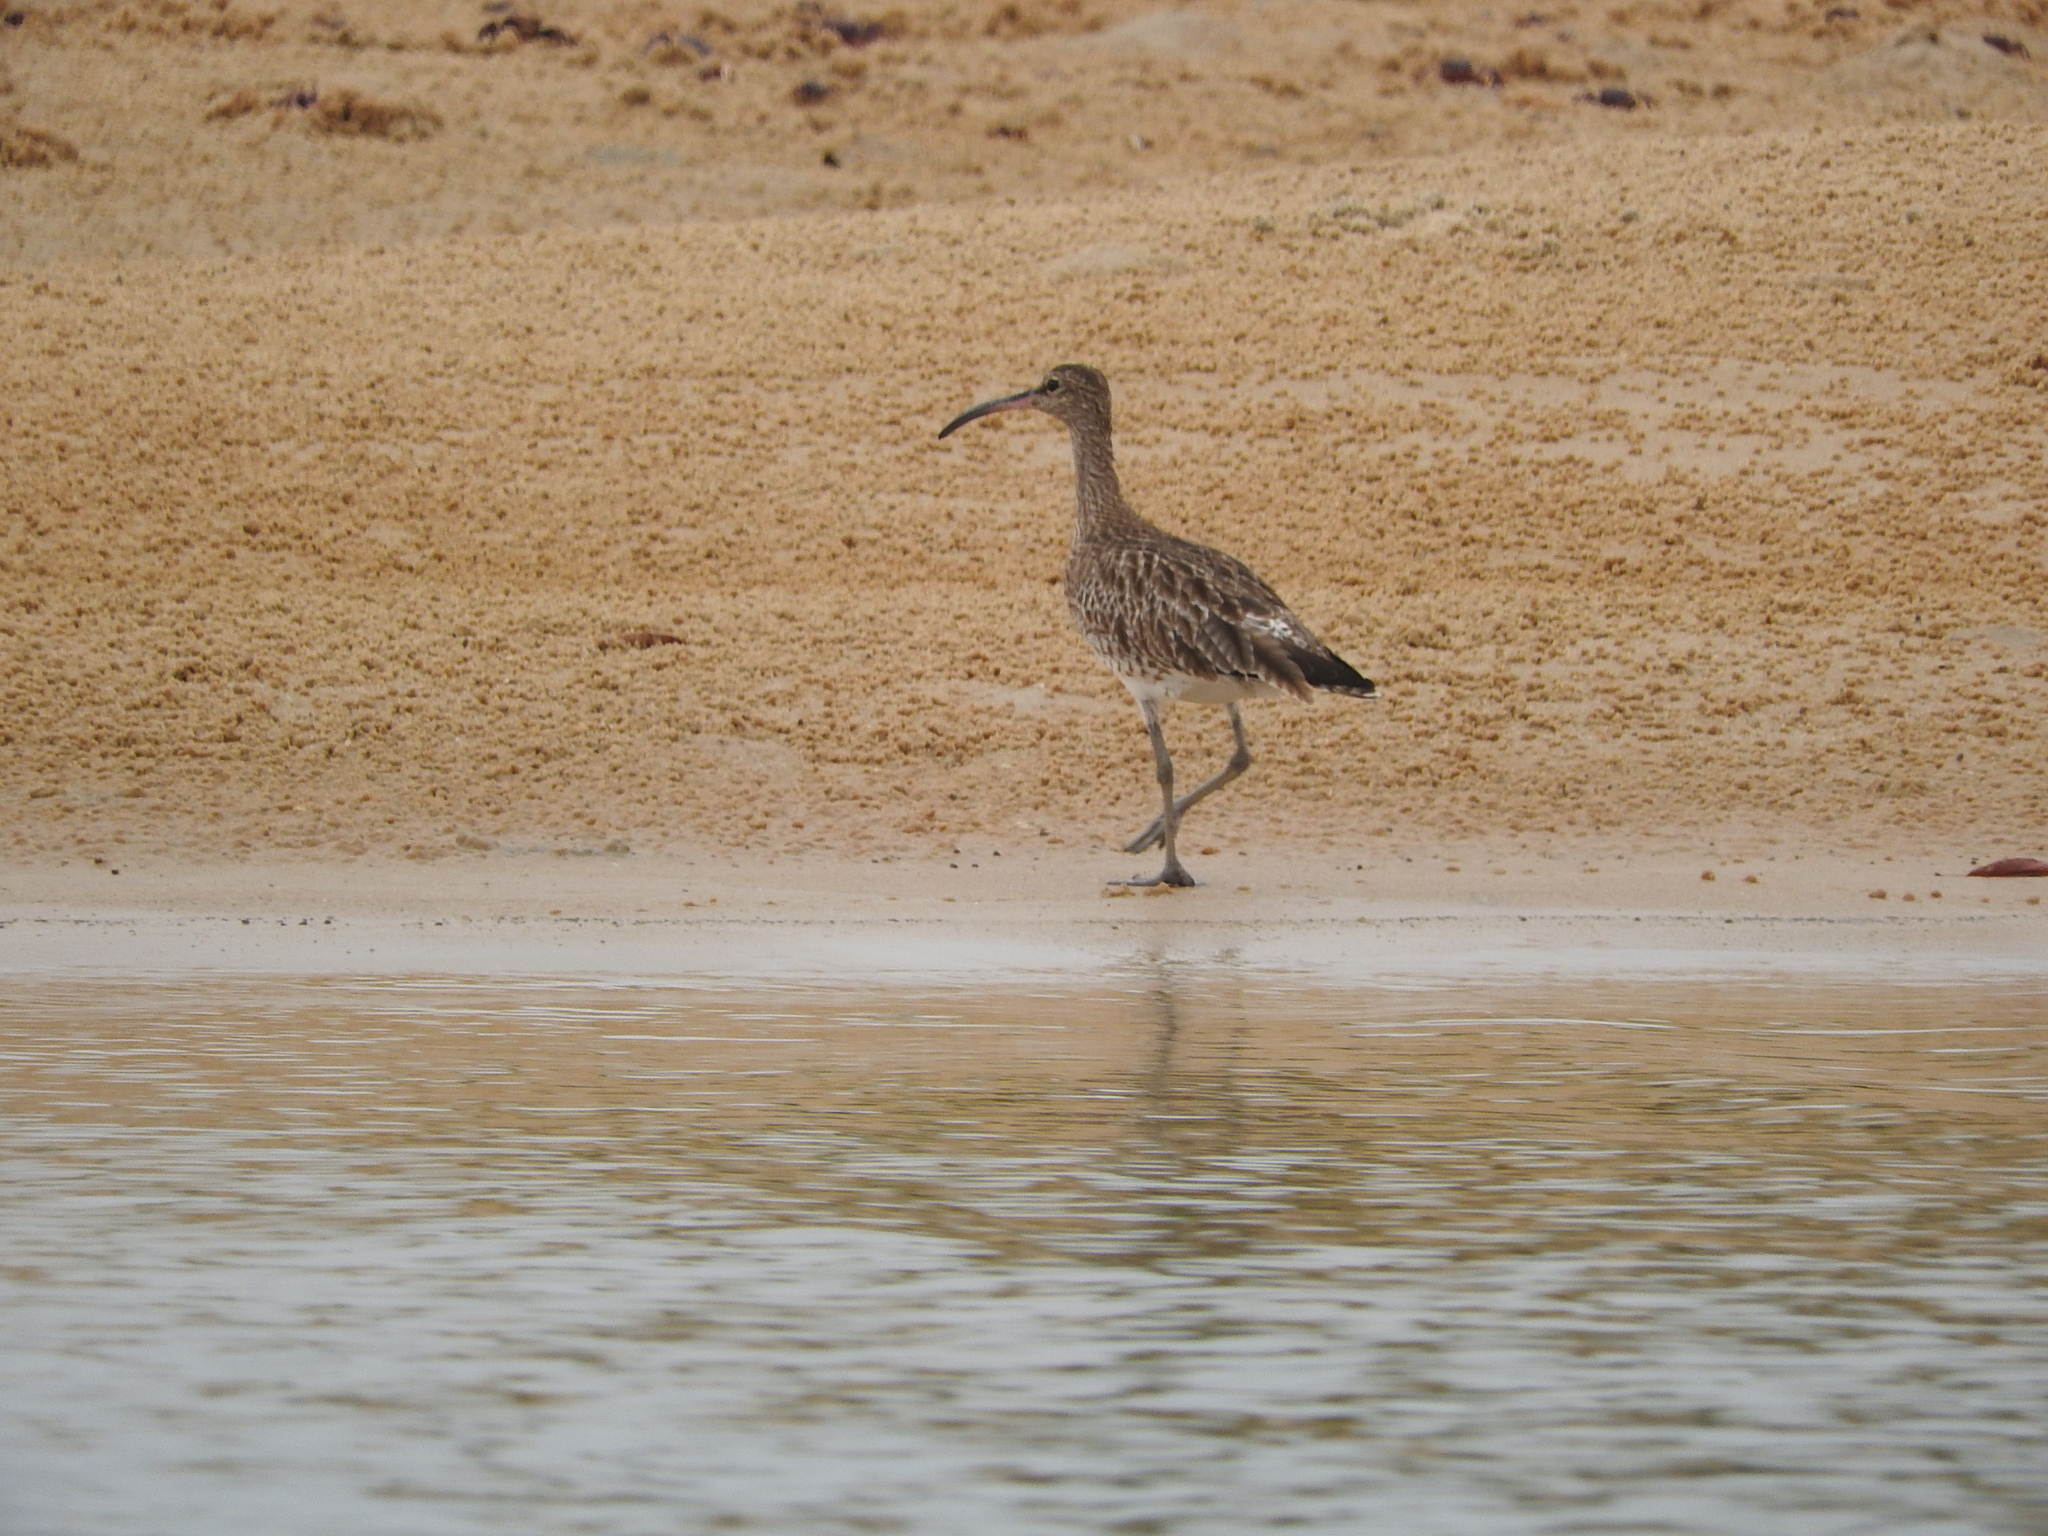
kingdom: Animalia
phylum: Chordata
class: Aves
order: Charadriiformes
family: Scolopacidae
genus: Numenius
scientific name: Numenius phaeopus
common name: Whimbrel
